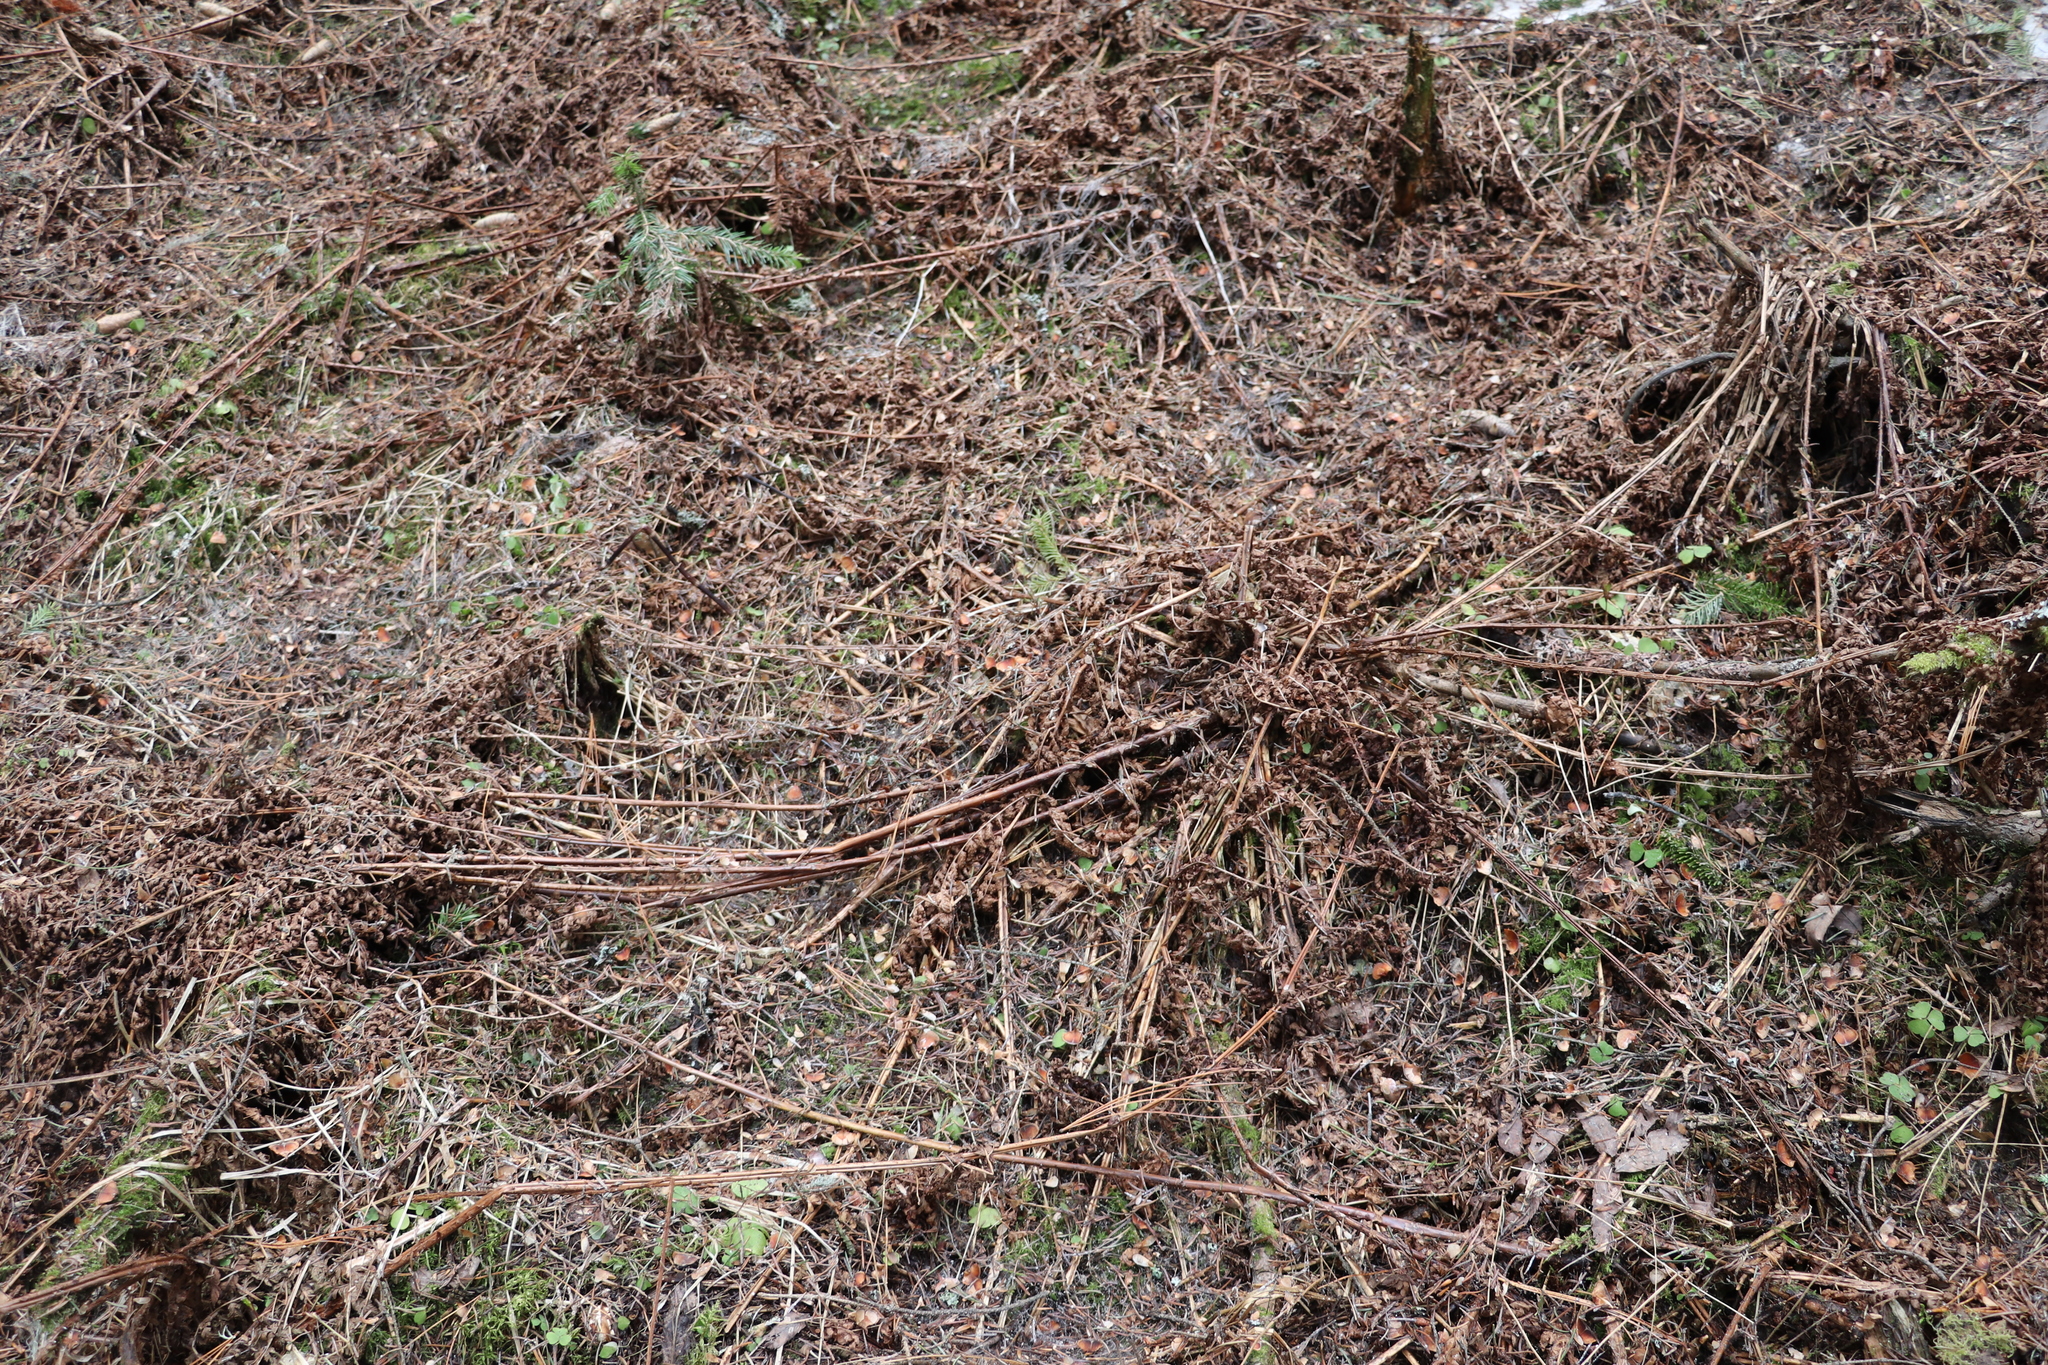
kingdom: Plantae
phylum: Tracheophyta
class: Polypodiopsida
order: Polypodiales
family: Athyriaceae
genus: Athyrium
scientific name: Athyrium filix-femina
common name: Lady fern
